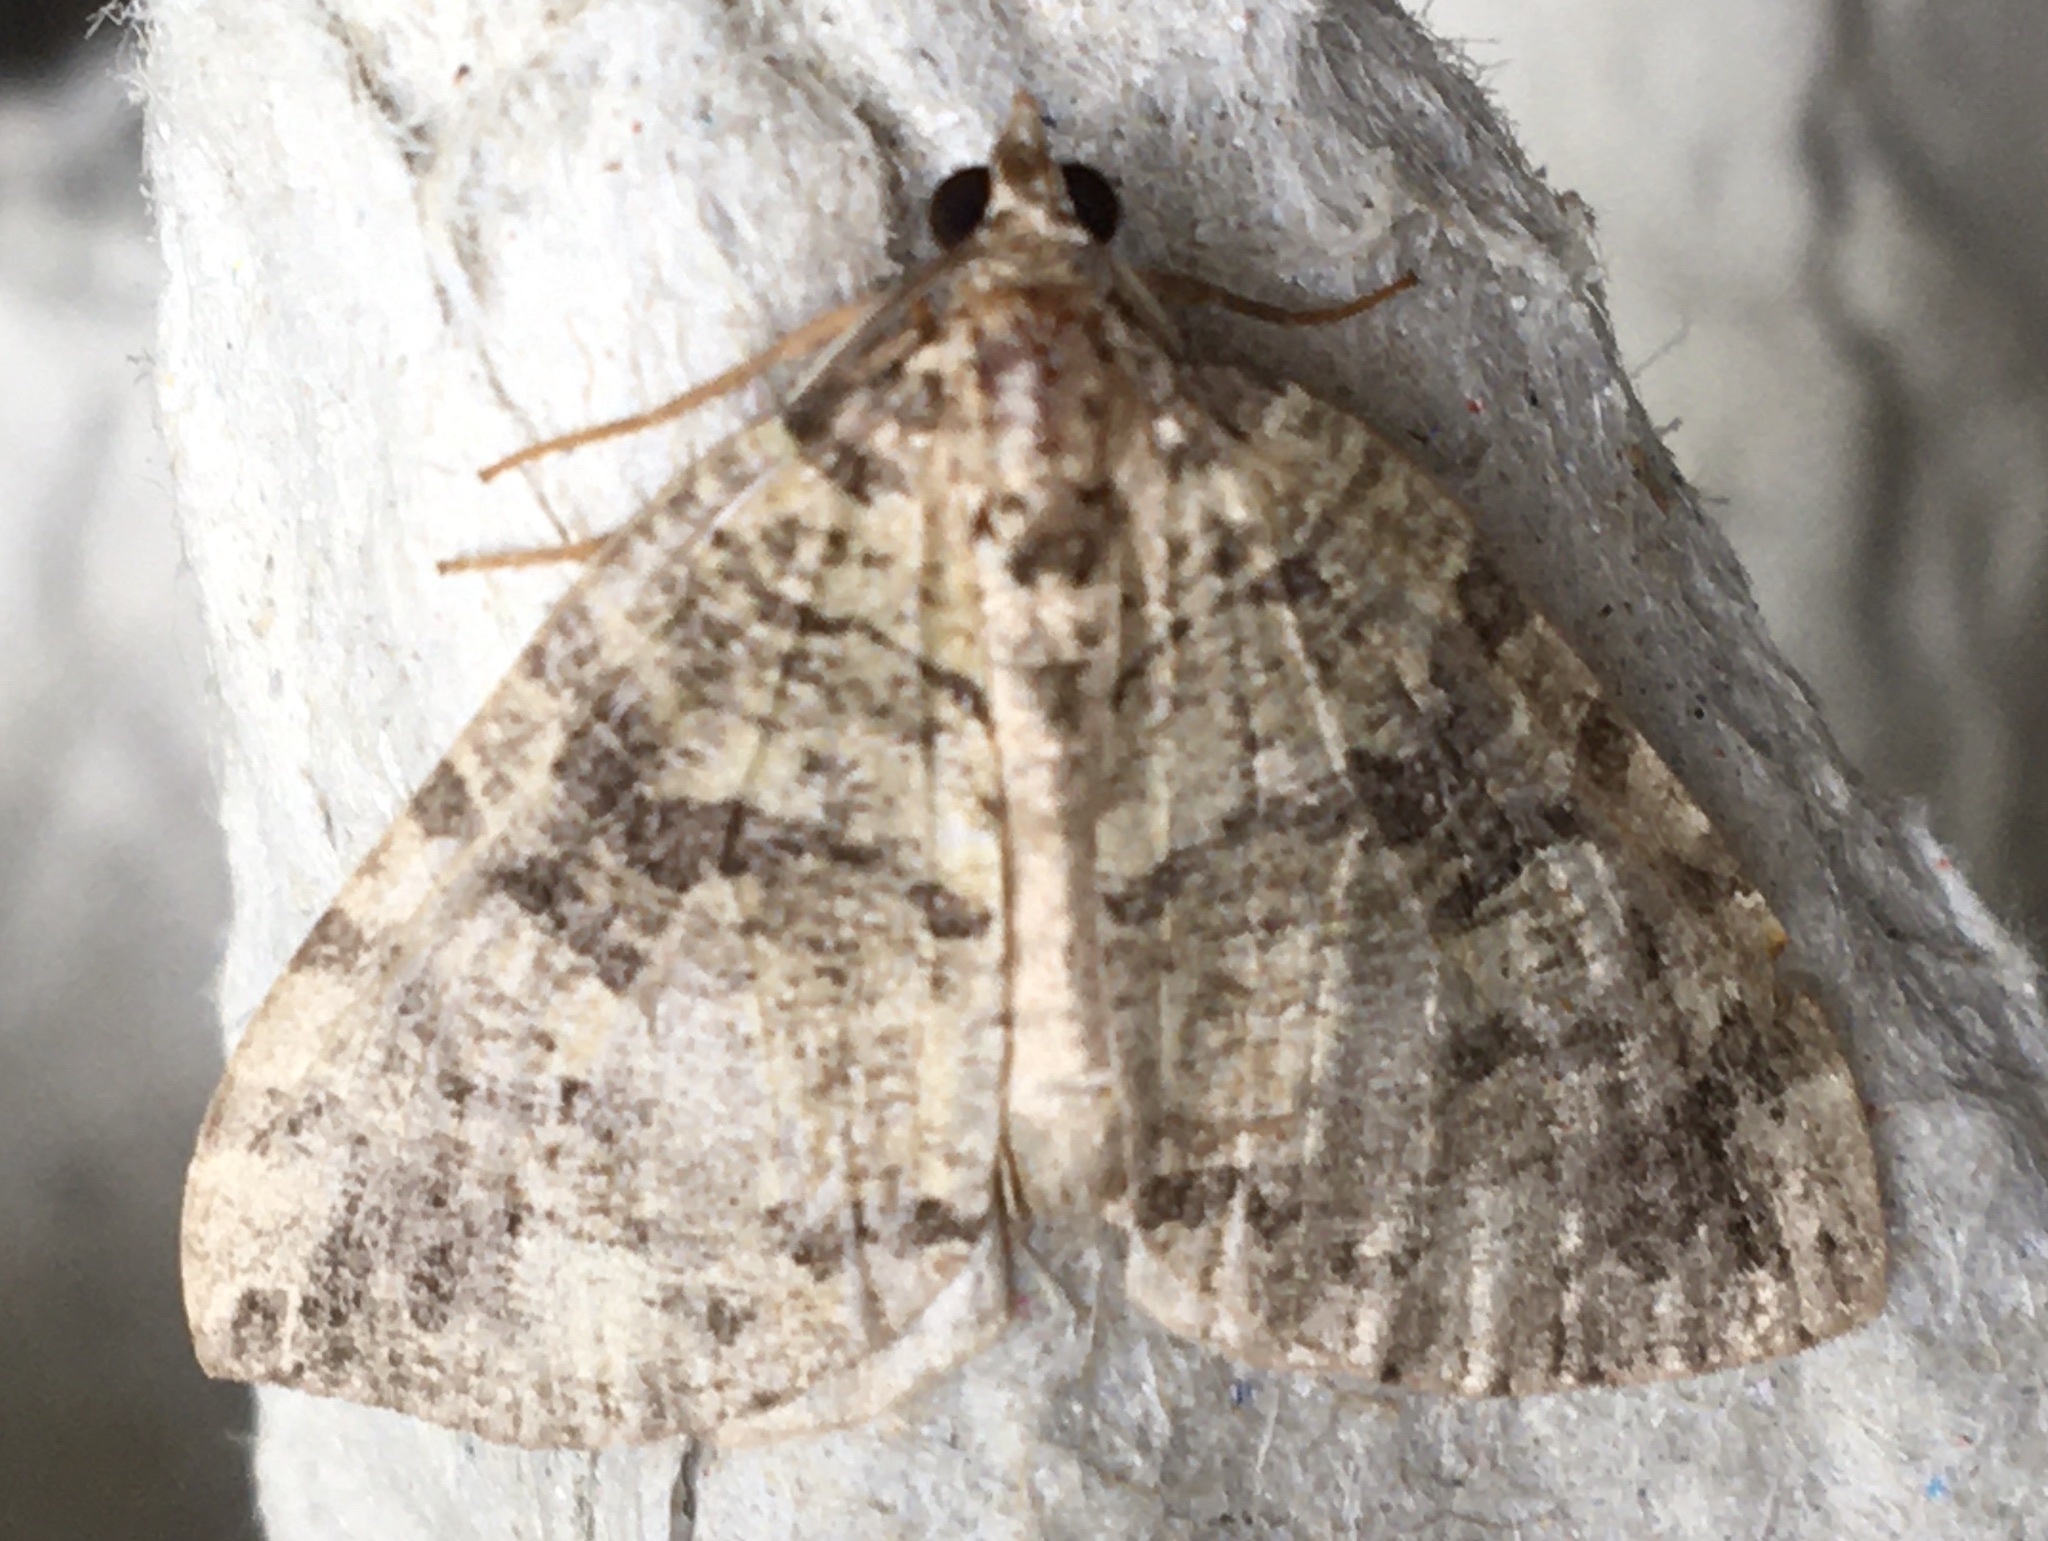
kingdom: Animalia
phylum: Arthropoda
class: Insecta
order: Lepidoptera
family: Geometridae
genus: Hydriomena
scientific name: Hydriomena furcata
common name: July highflyer
